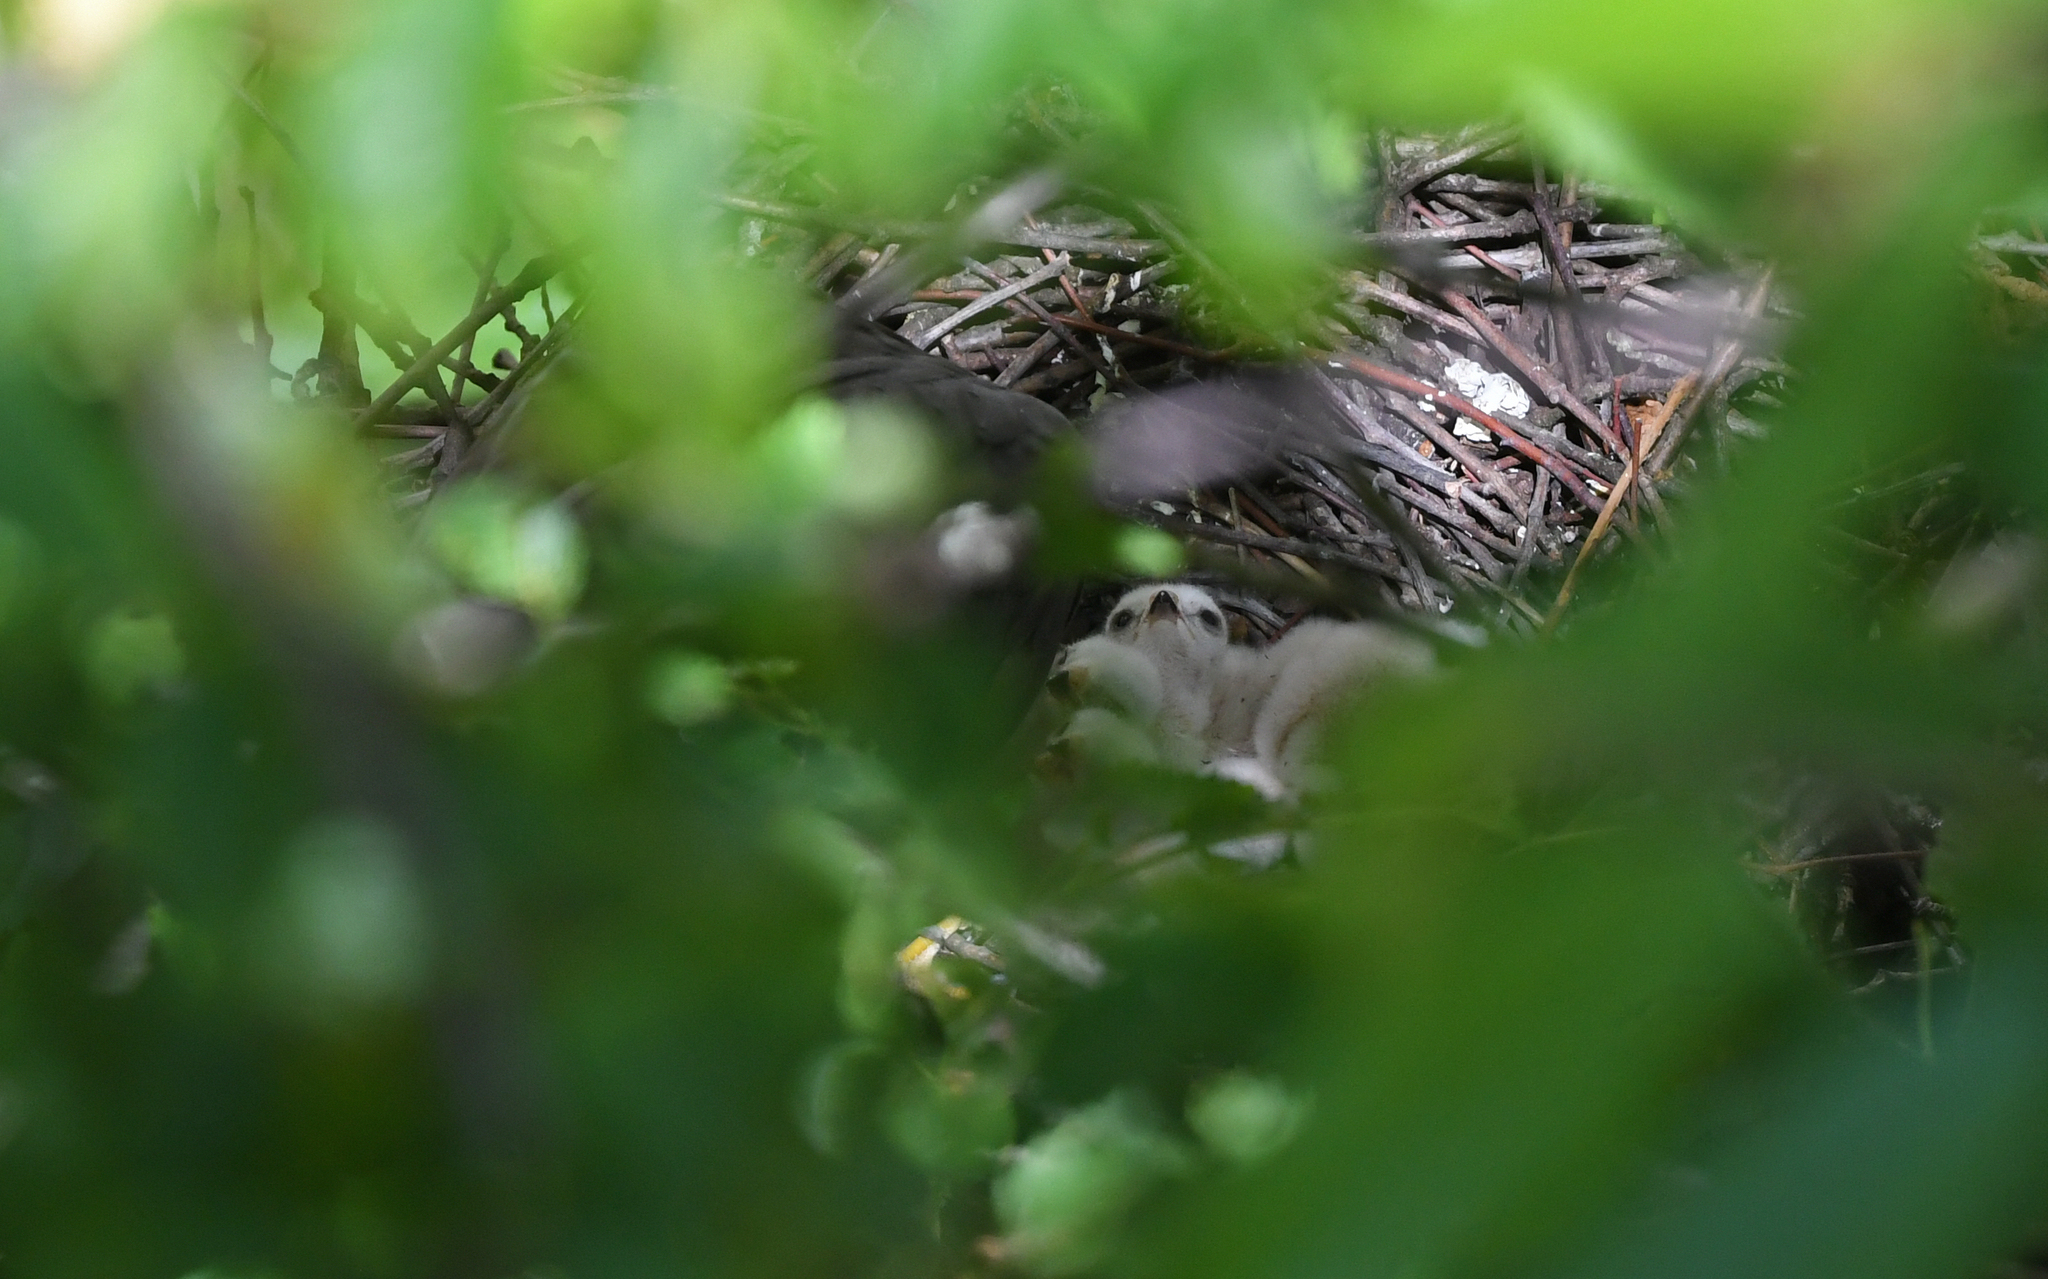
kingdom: Animalia
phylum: Chordata
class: Aves
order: Accipitriformes
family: Accipitridae
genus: Accipiter
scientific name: Accipiter nisus
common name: Eurasian sparrowhawk
